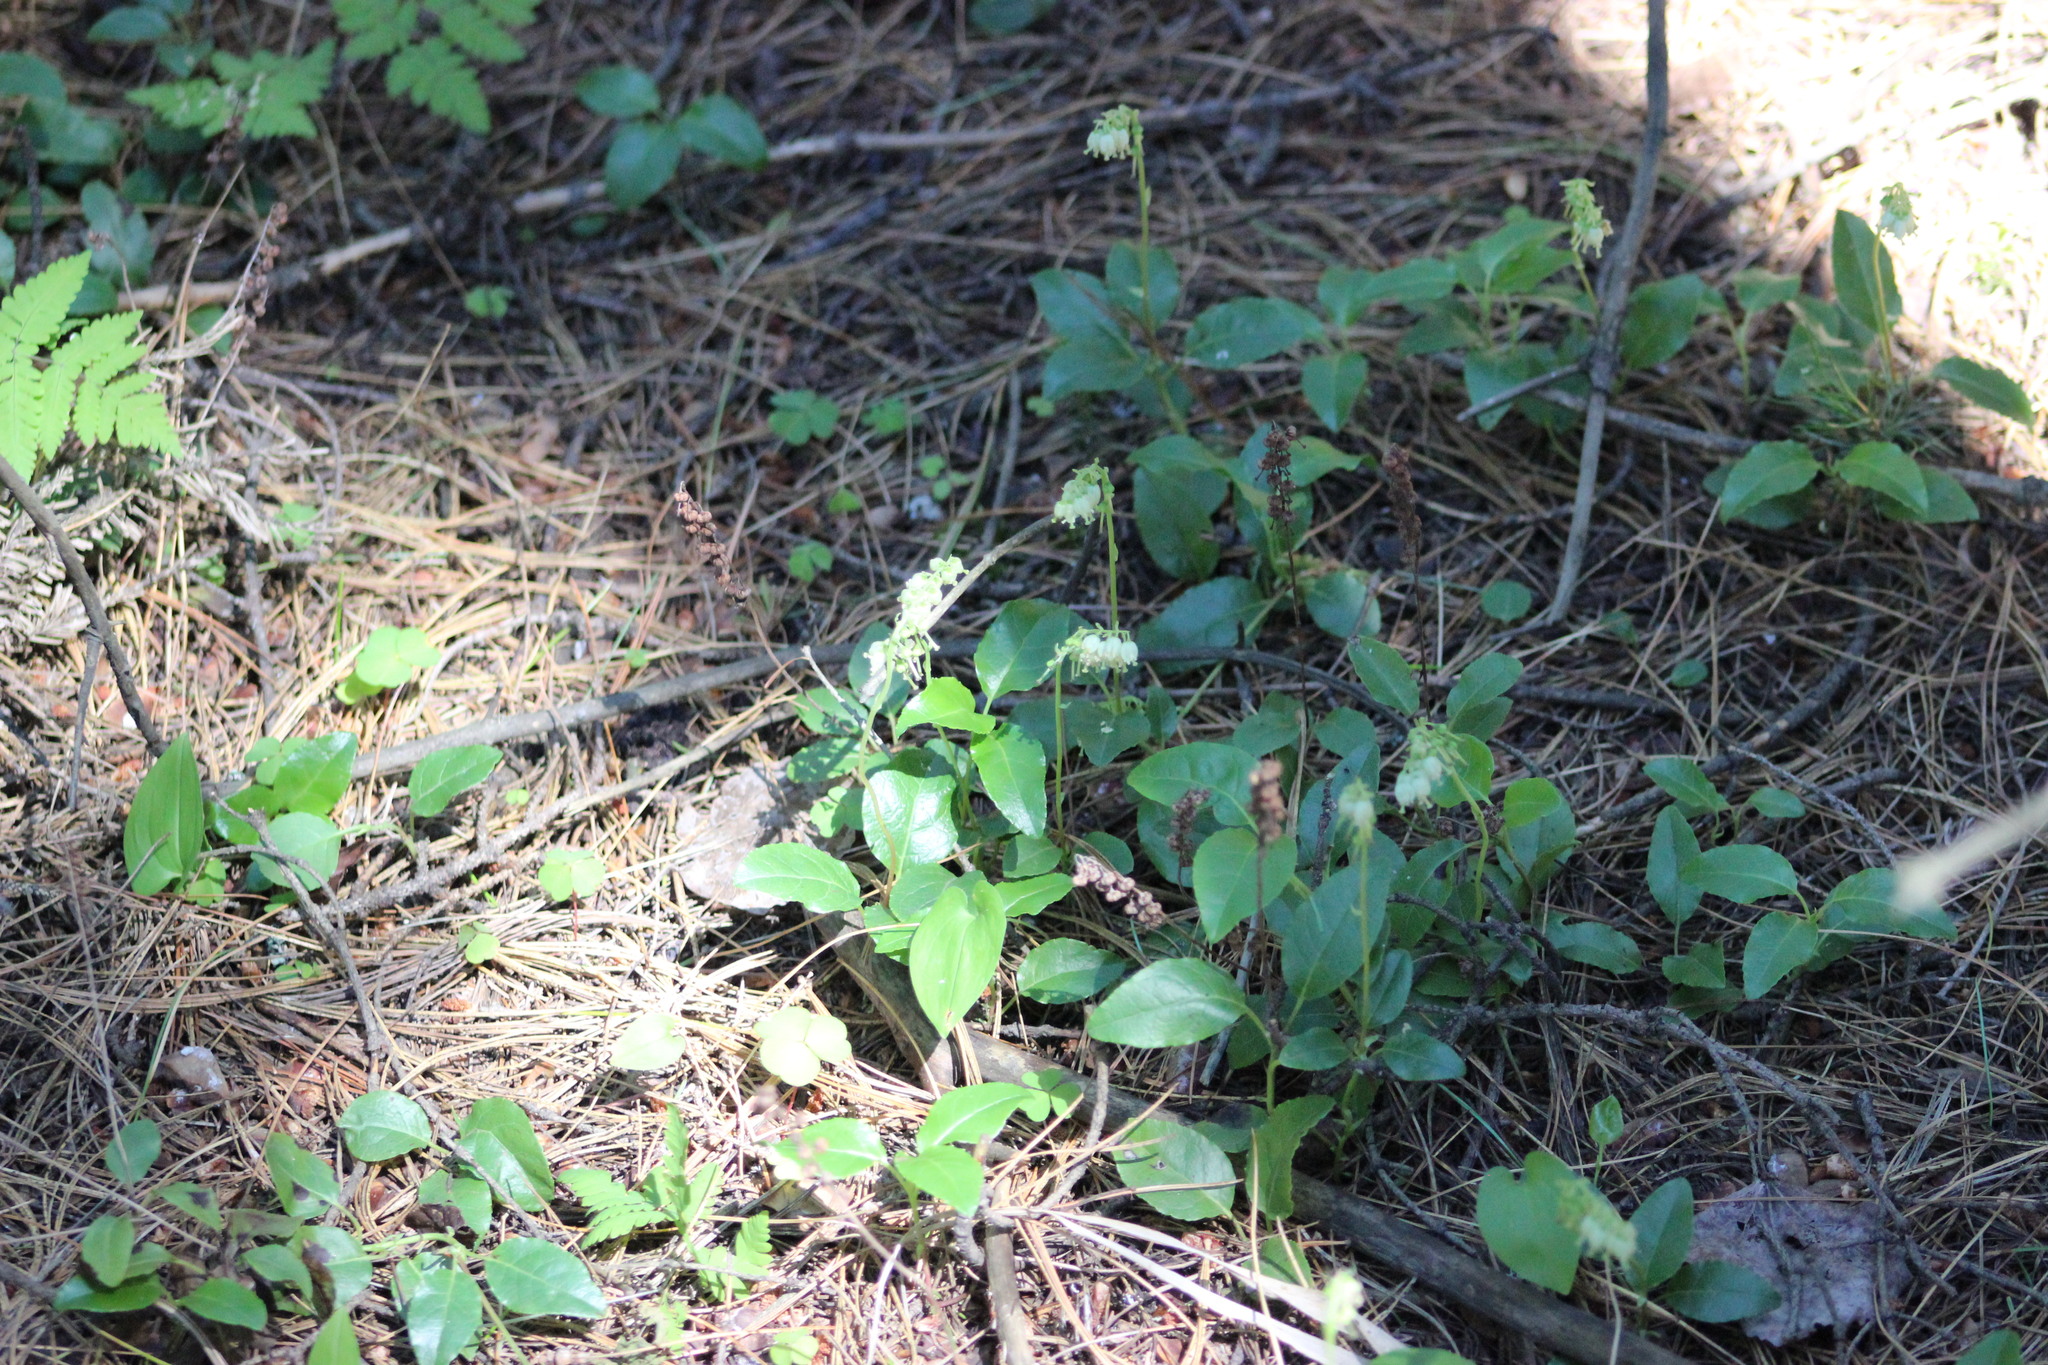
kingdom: Plantae
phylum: Tracheophyta
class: Magnoliopsida
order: Ericales
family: Ericaceae
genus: Orthilia
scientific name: Orthilia secunda
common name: One-sided orthilia
